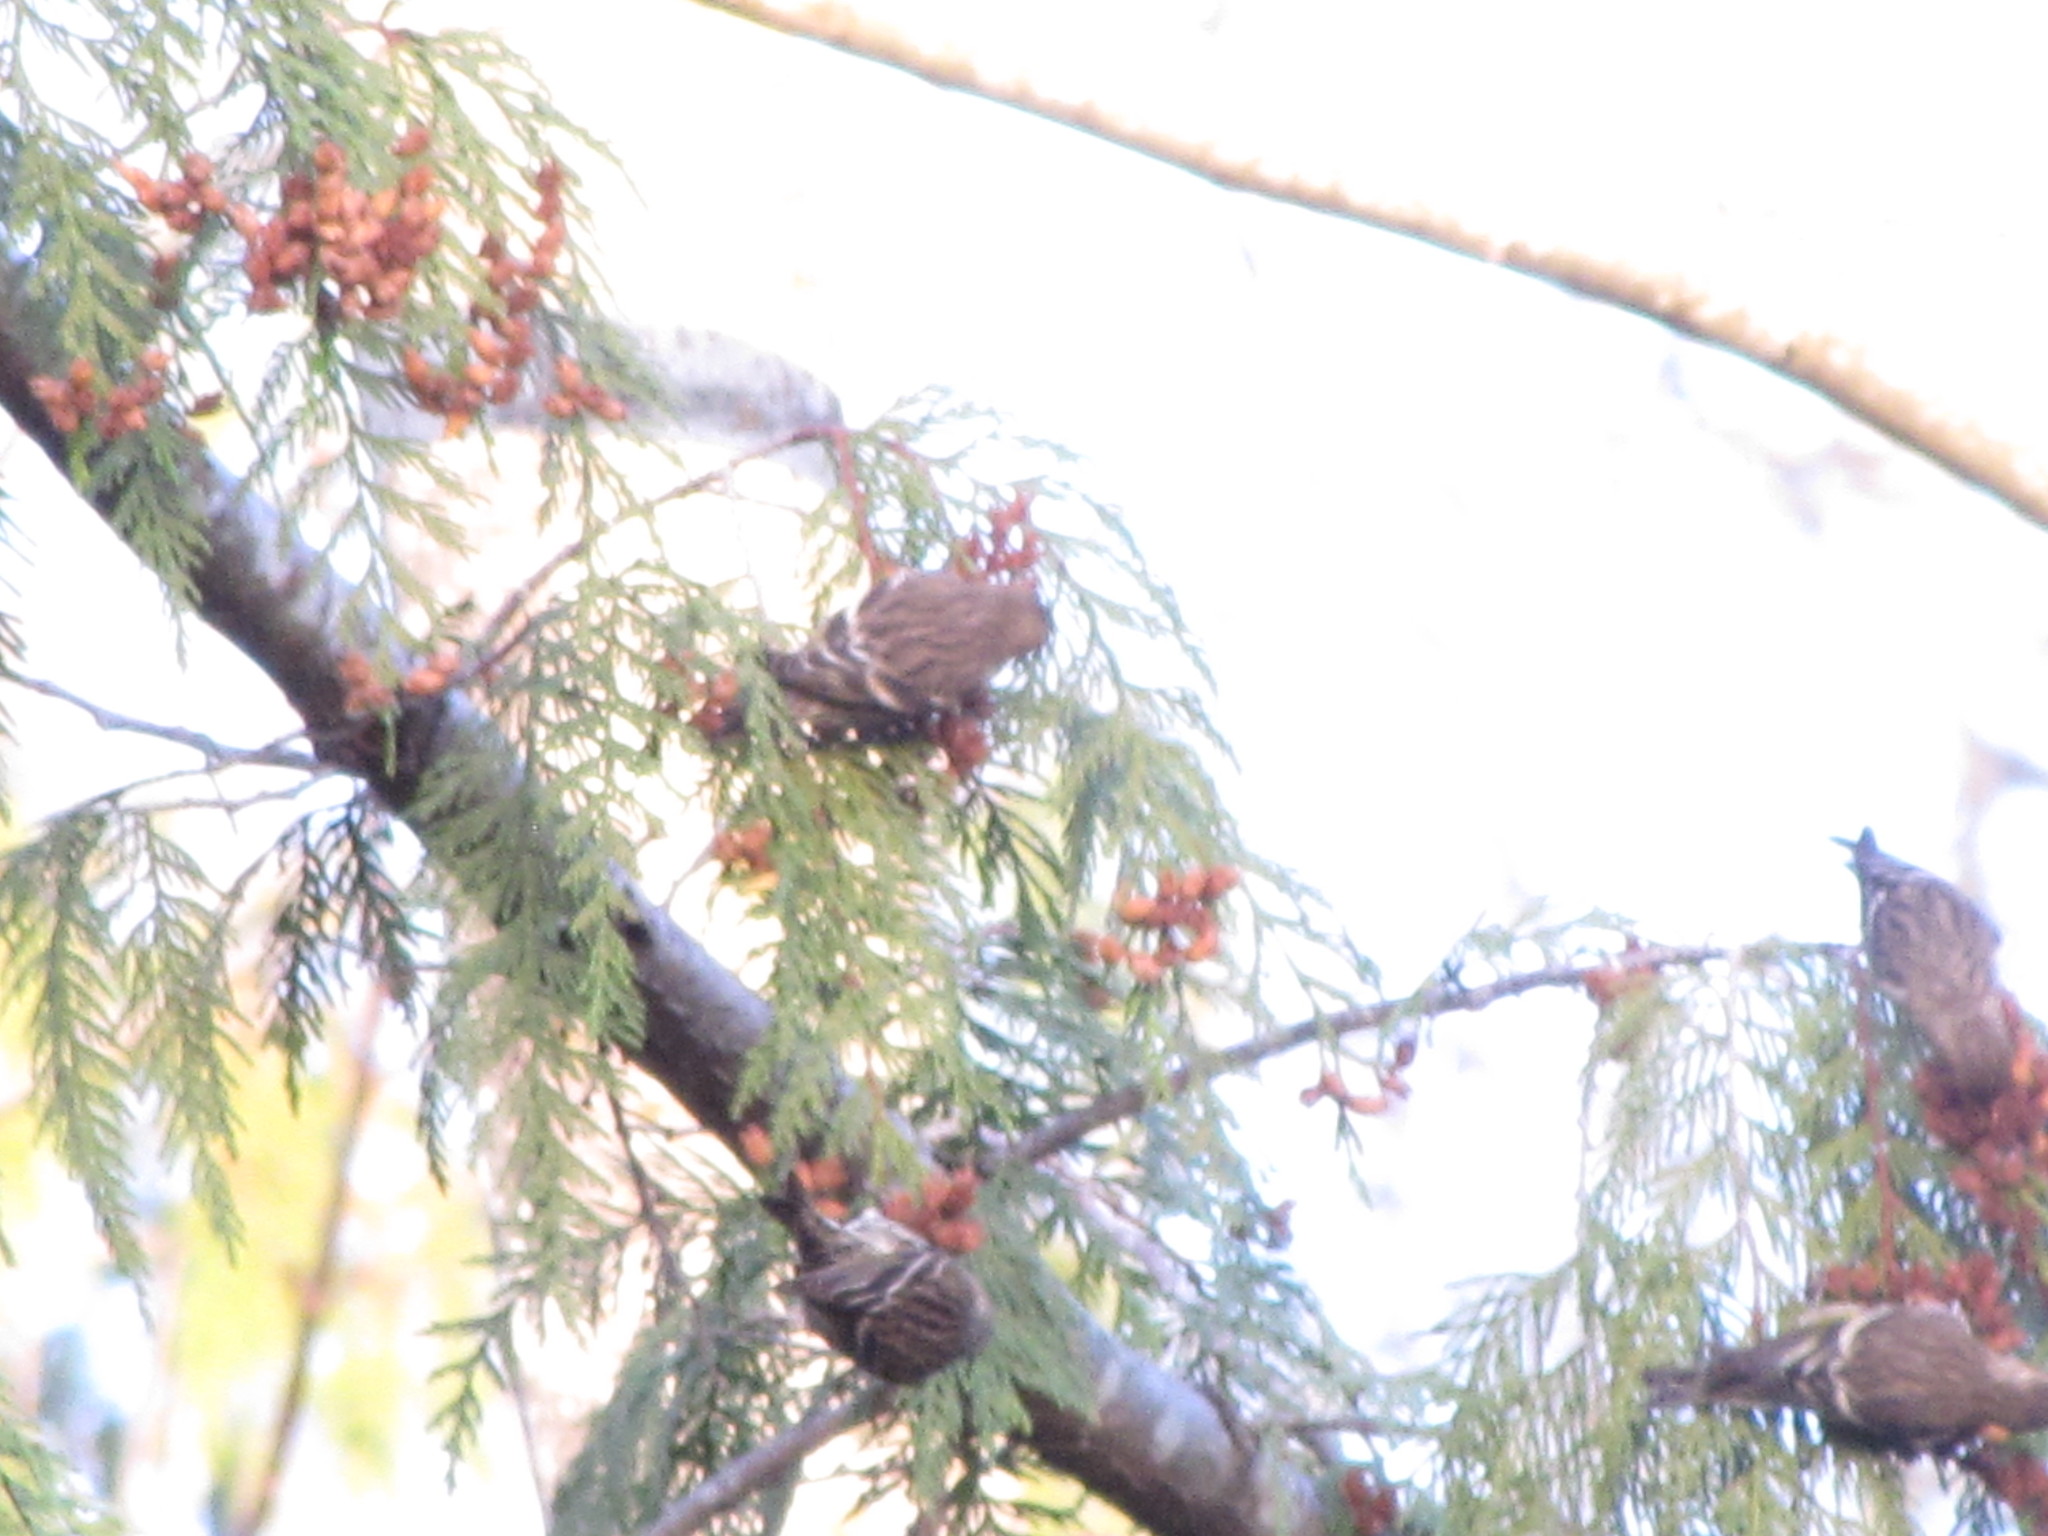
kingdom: Animalia
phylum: Chordata
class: Aves
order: Passeriformes
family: Fringillidae
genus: Spinus
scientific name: Spinus pinus
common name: Pine siskin
